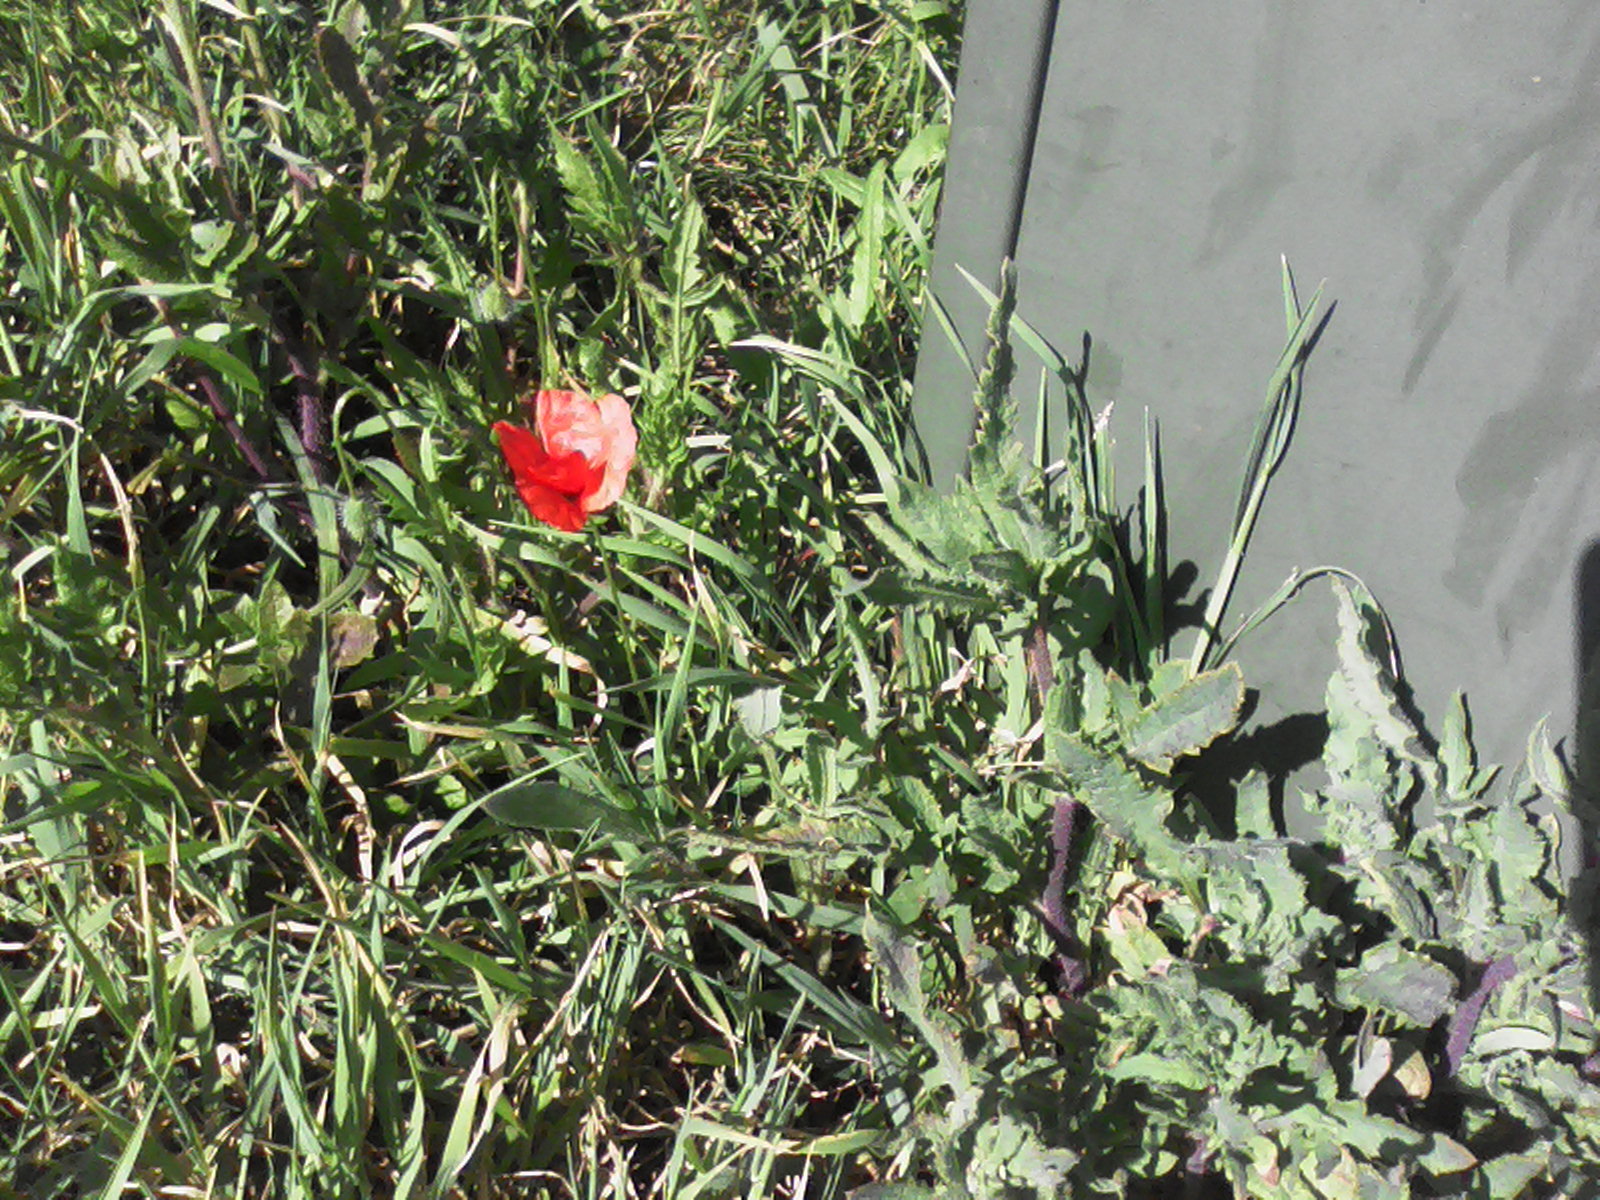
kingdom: Plantae
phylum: Tracheophyta
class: Magnoliopsida
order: Ranunculales
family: Papaveraceae
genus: Papaver
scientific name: Papaver rhoeas
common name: Corn poppy
